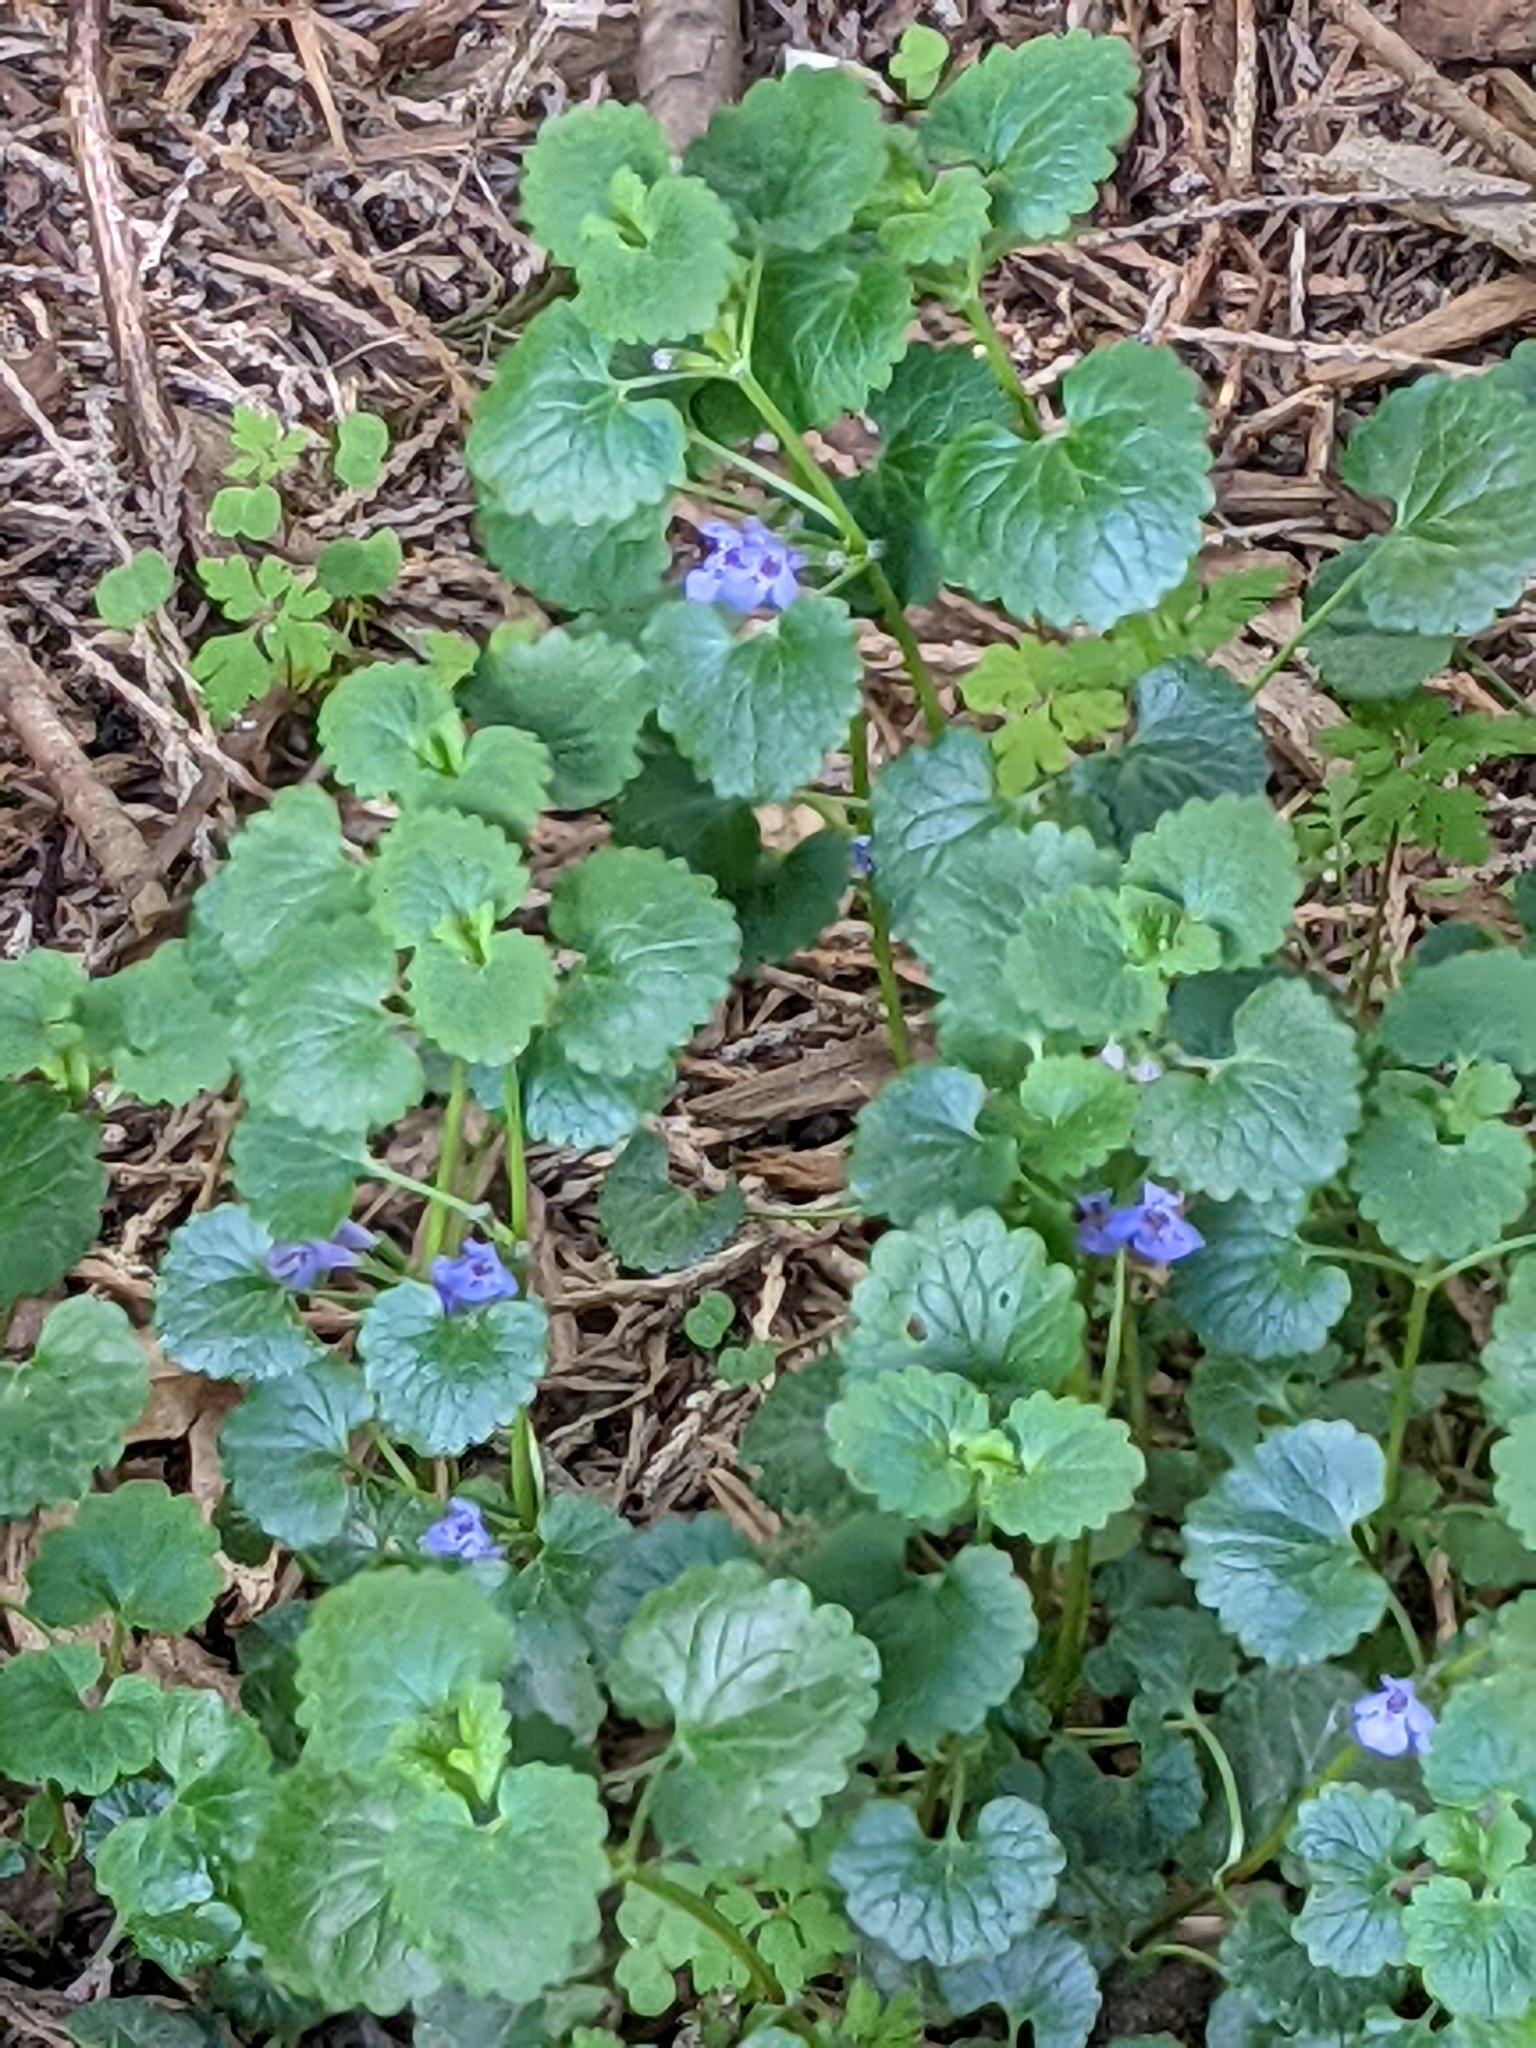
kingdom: Plantae
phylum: Tracheophyta
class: Magnoliopsida
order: Lamiales
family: Lamiaceae
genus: Glechoma
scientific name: Glechoma hederacea
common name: Ground ivy
